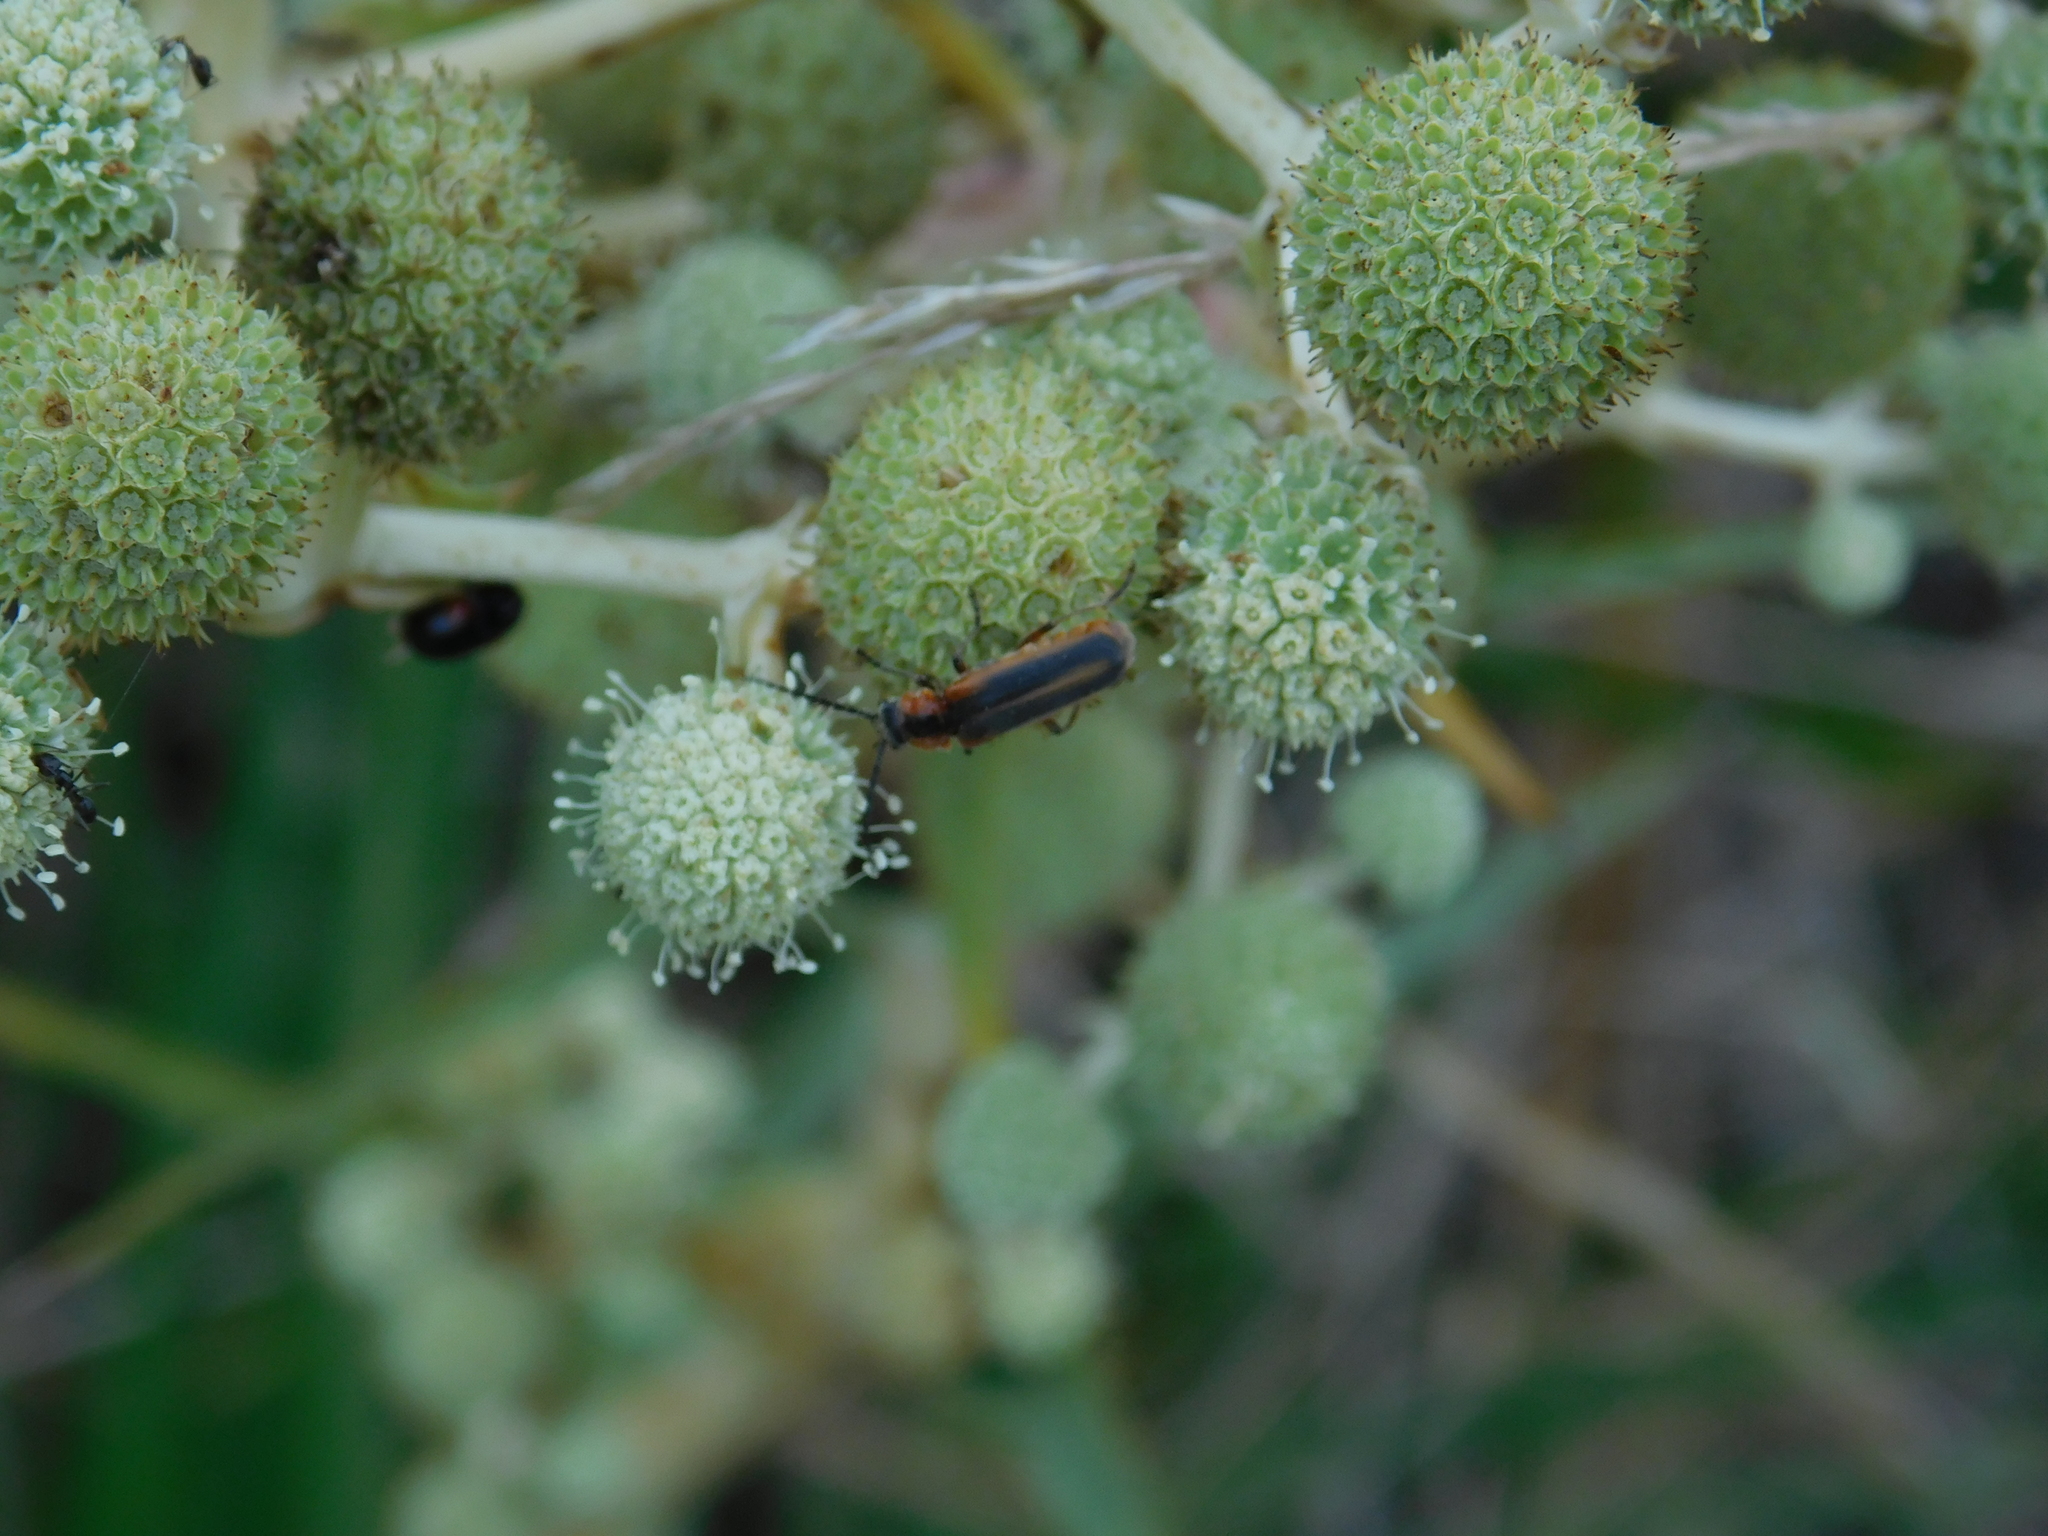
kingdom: Animalia
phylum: Arthropoda
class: Insecta
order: Coleoptera
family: Cantharidae
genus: Discodon
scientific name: Discodon
